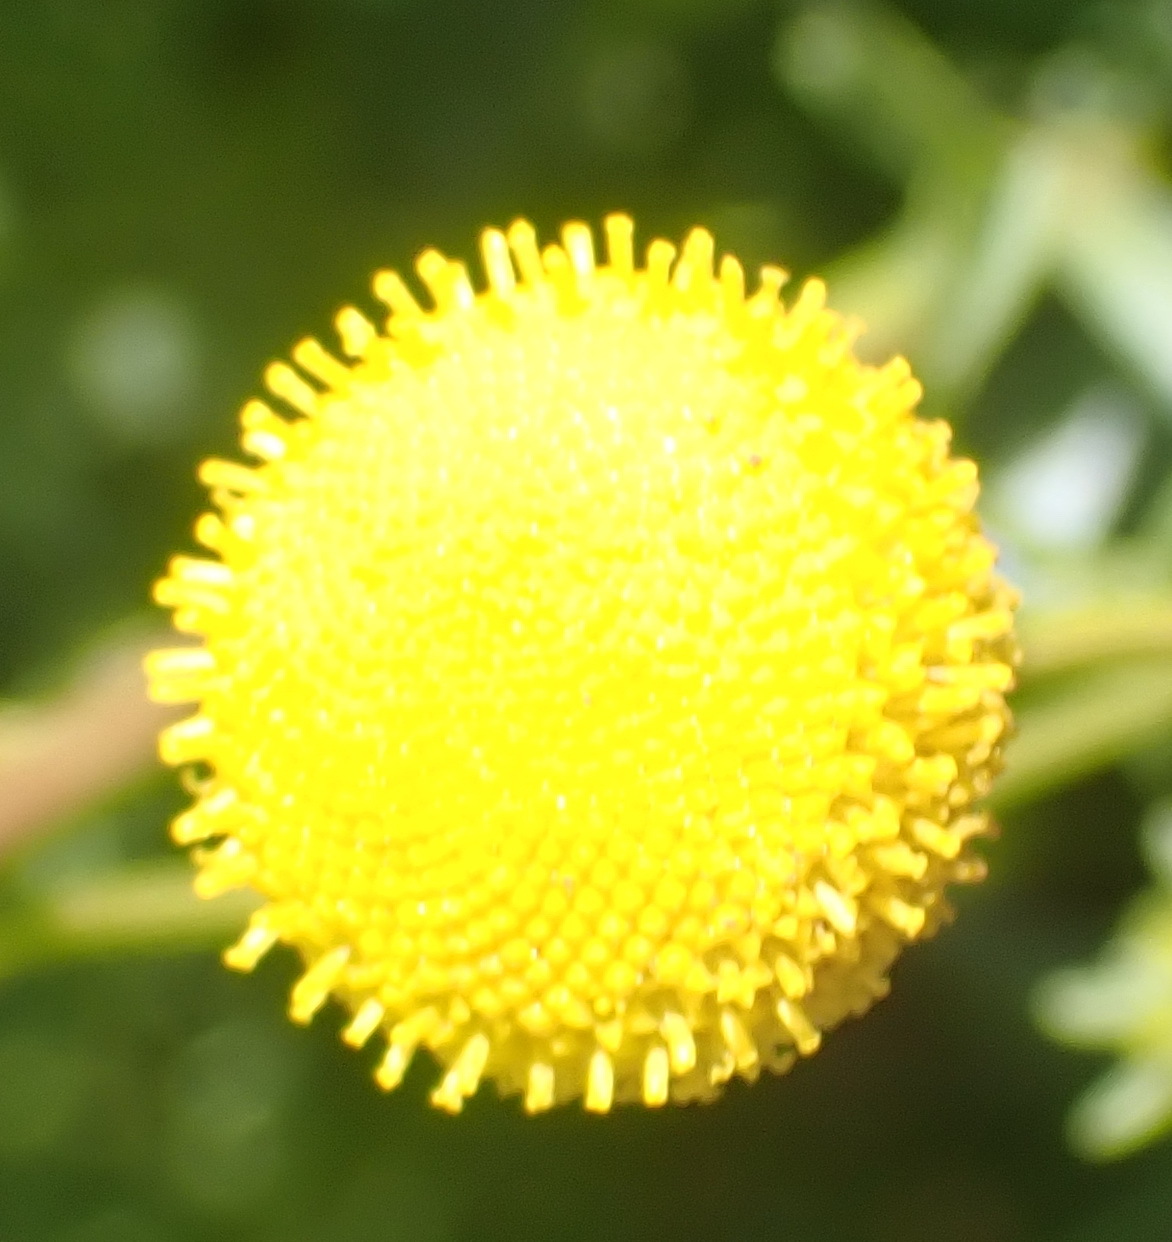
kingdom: Plantae
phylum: Tracheophyta
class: Magnoliopsida
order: Asterales
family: Asteraceae
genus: Oncosiphon
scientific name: Oncosiphon pilulifer
